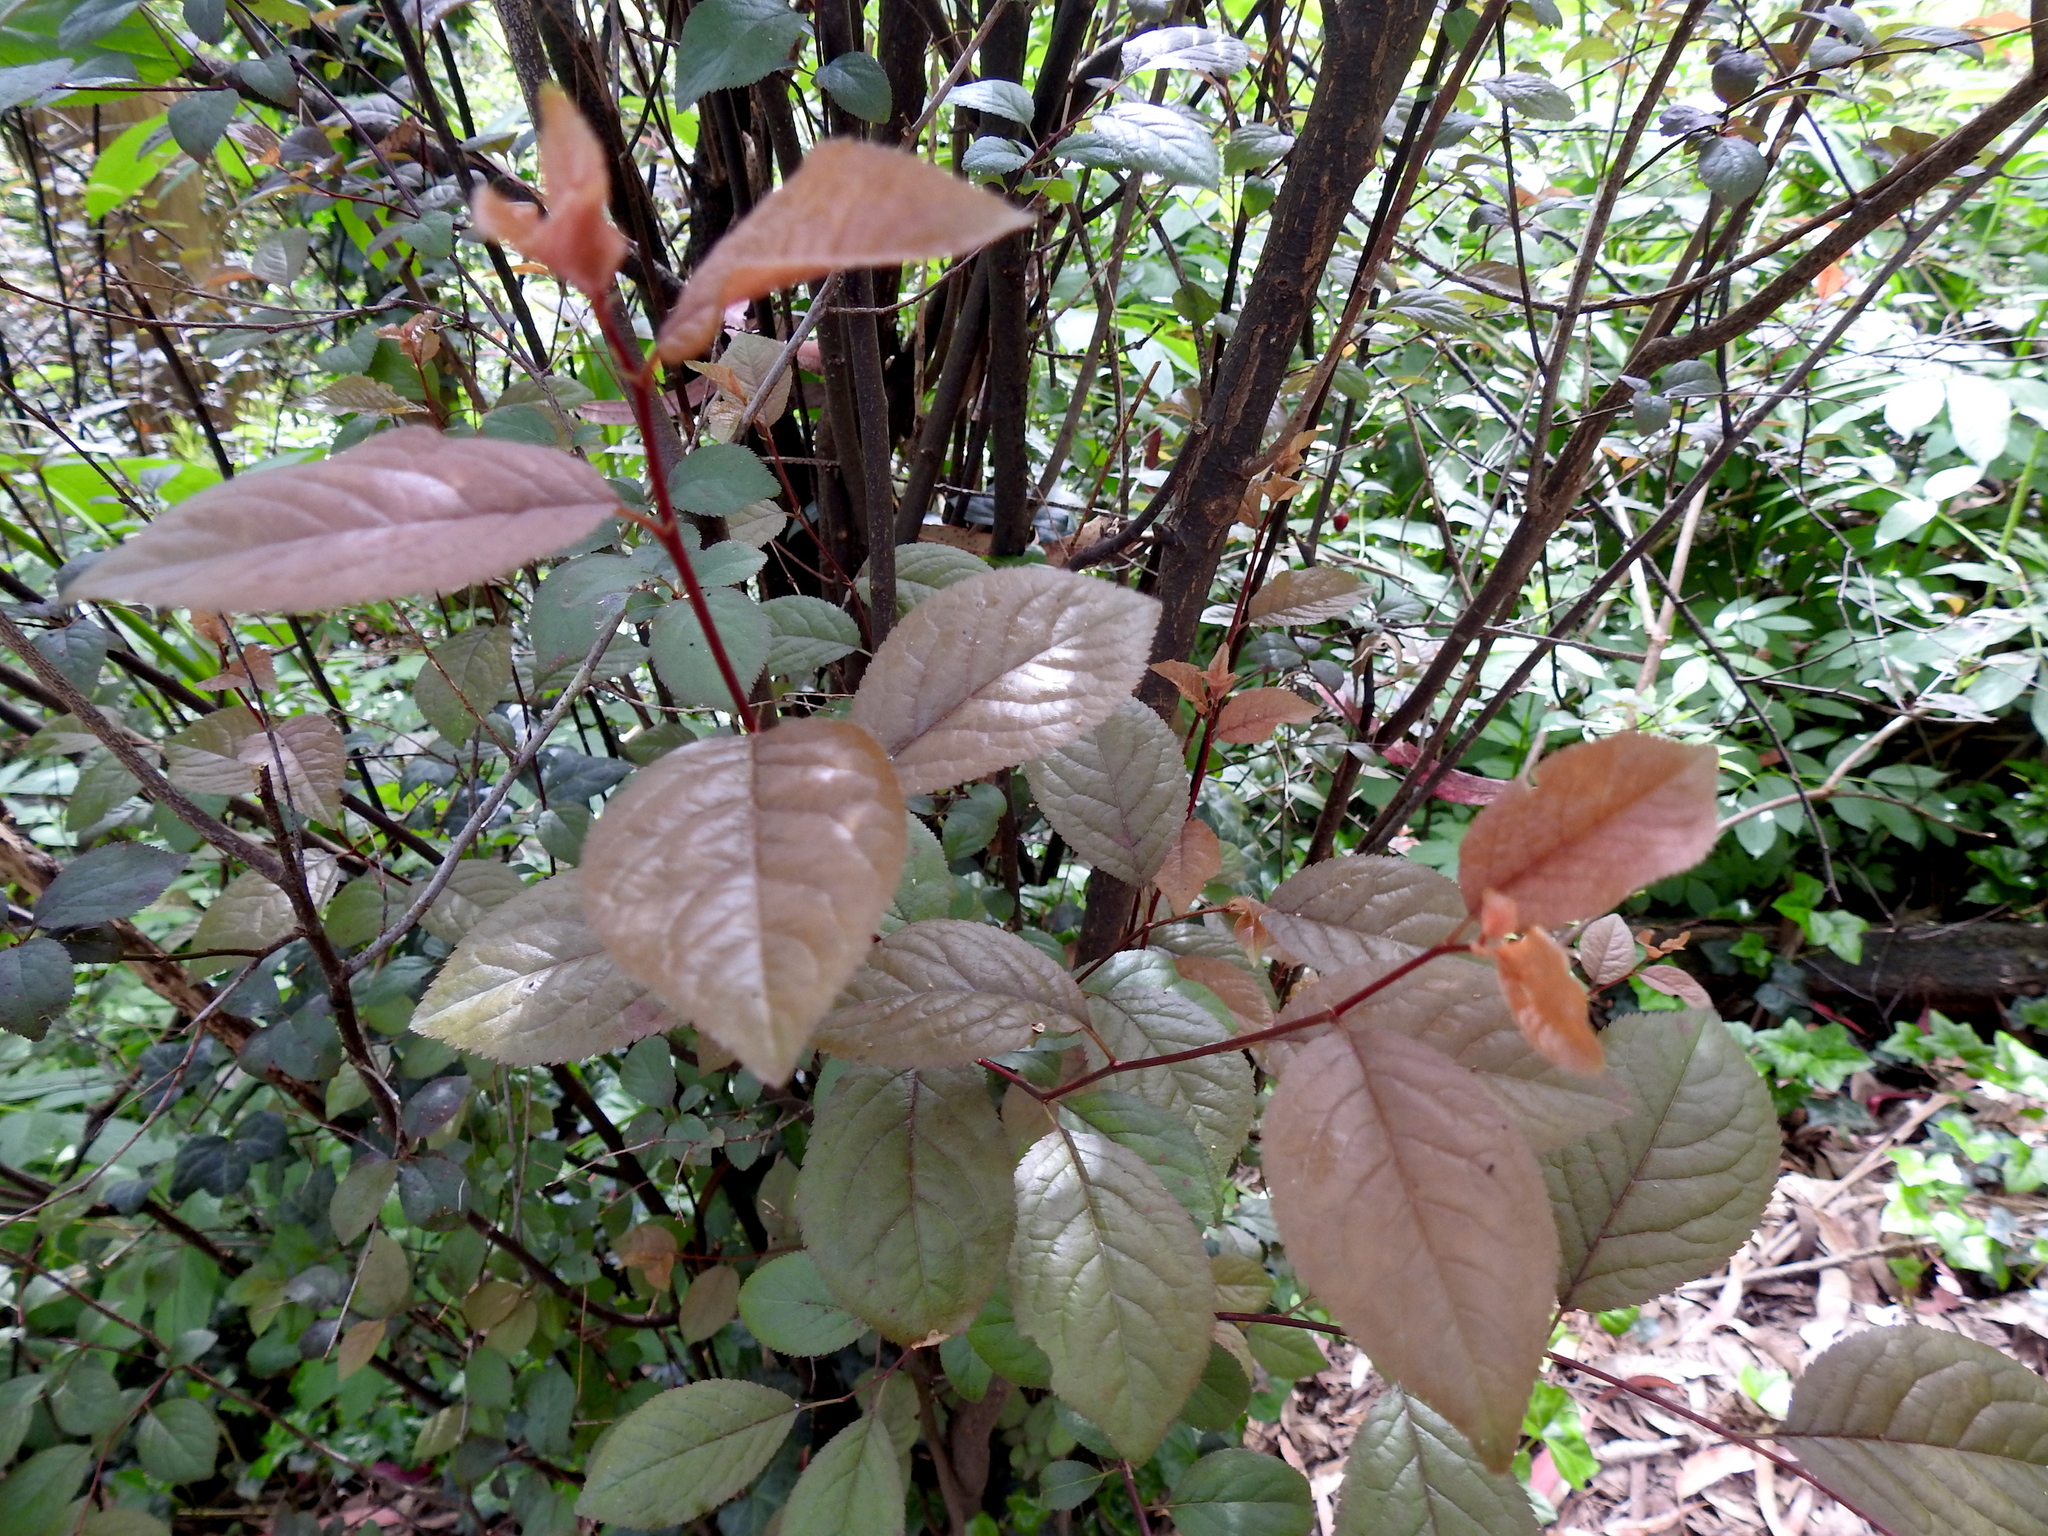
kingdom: Plantae
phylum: Tracheophyta
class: Magnoliopsida
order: Rosales
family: Rosaceae
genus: Prunus
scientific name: Prunus cerasifera
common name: Cherry plum
